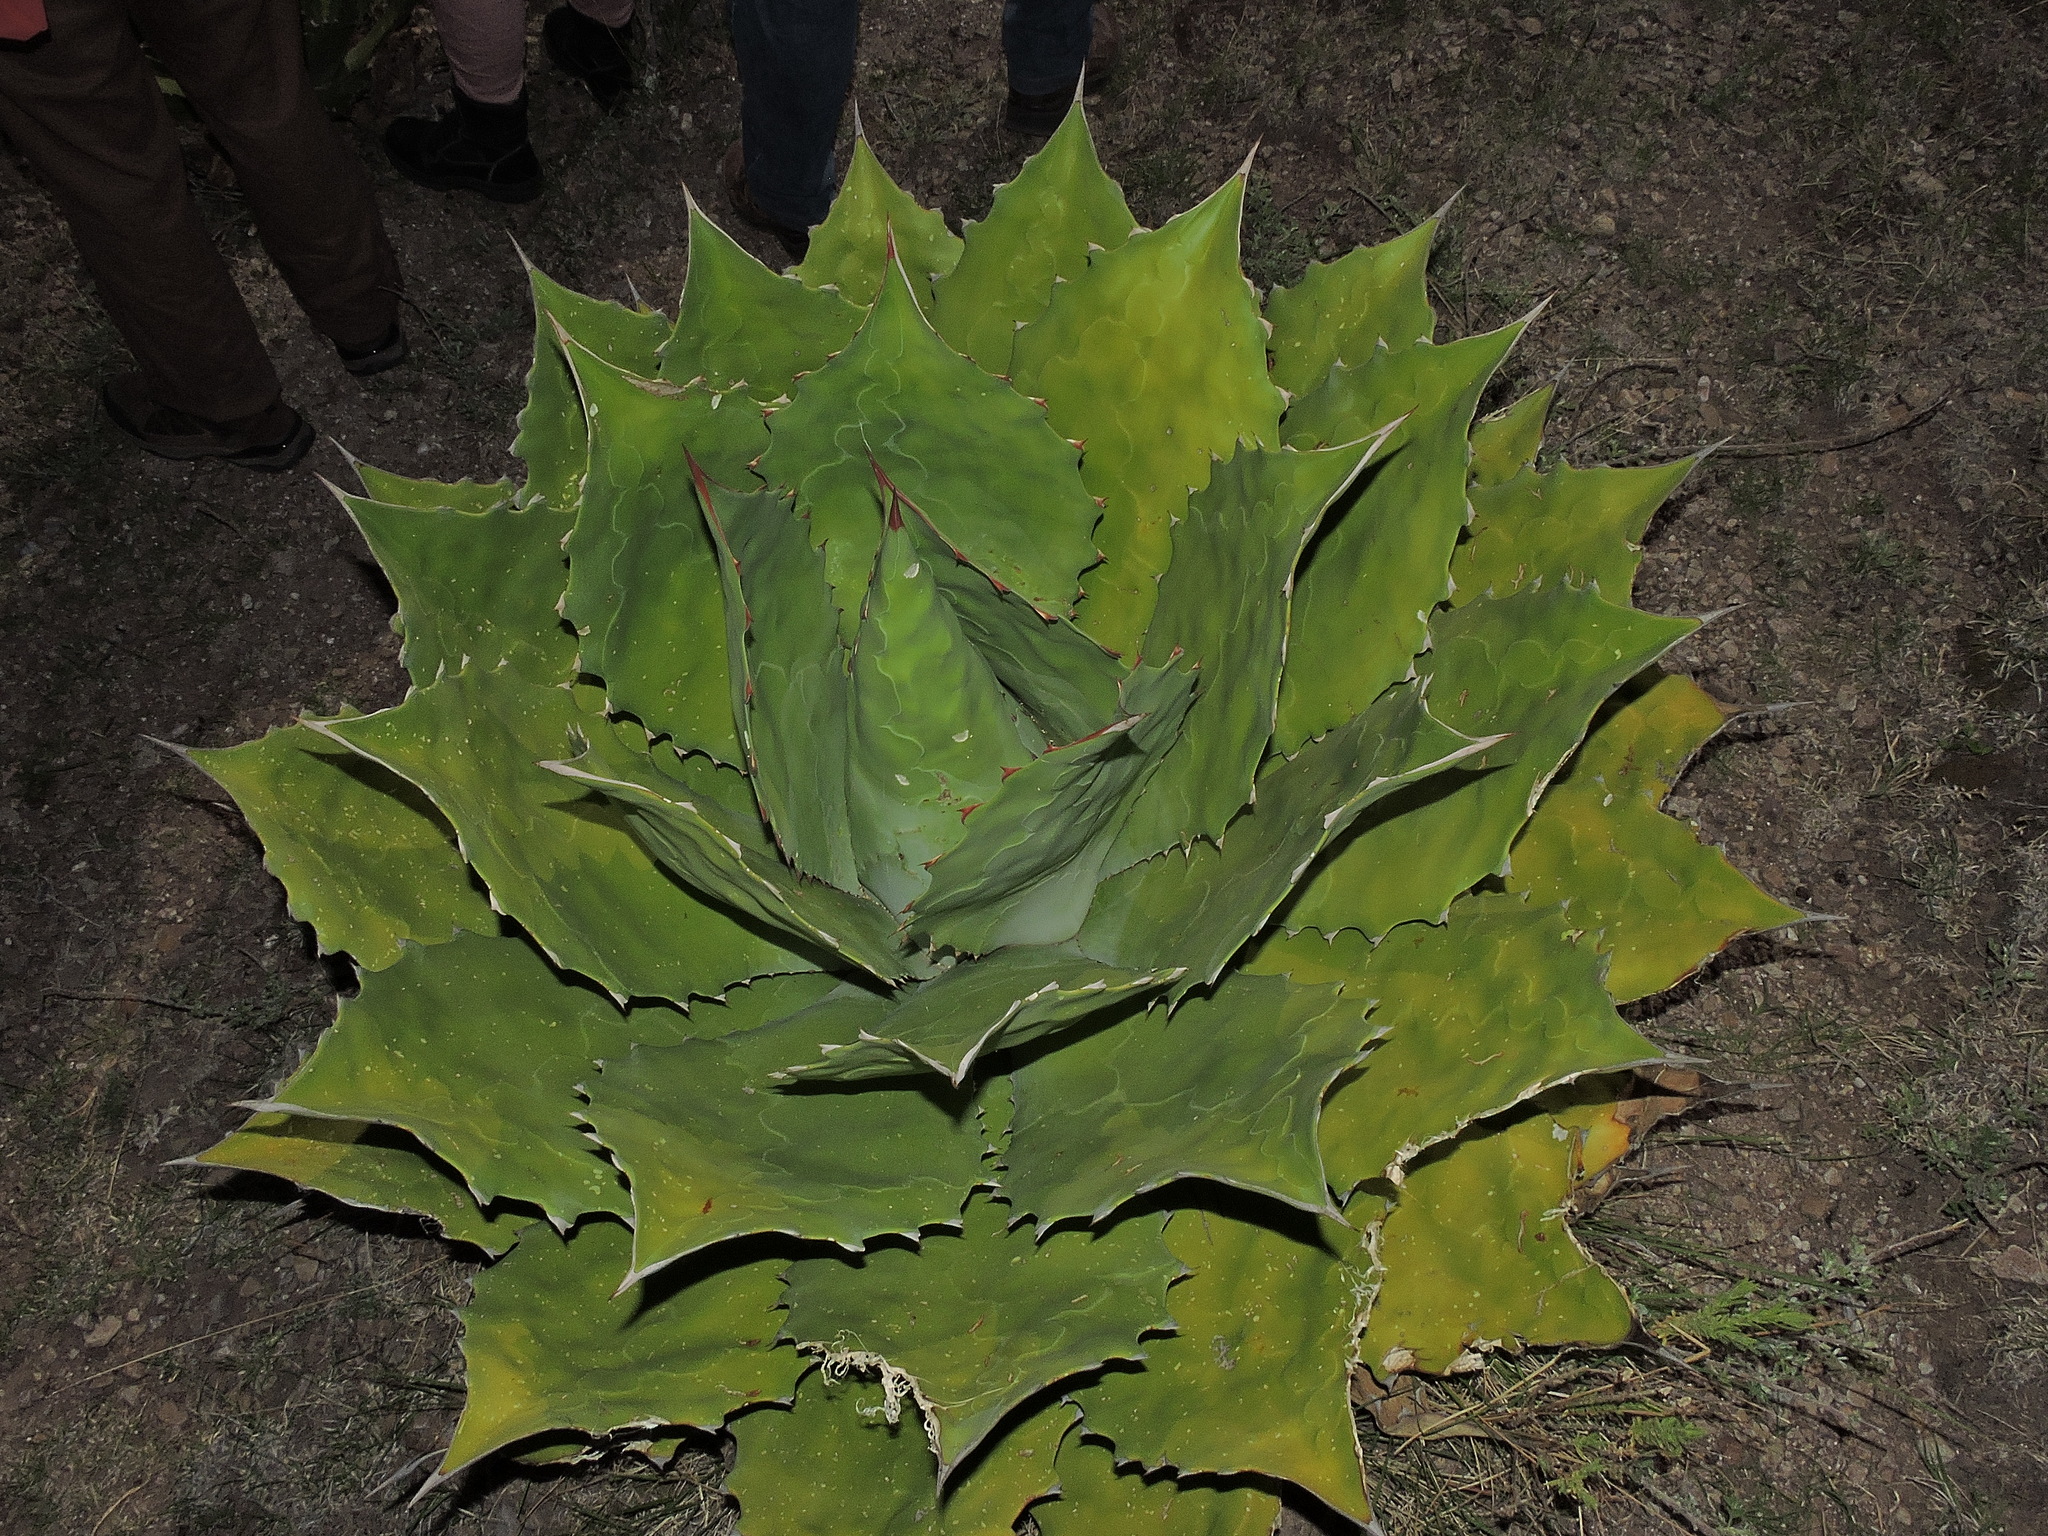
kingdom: Plantae
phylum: Tracheophyta
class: Liliopsida
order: Asparagales
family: Asparagaceae
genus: Agave
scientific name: Agave cupreata
